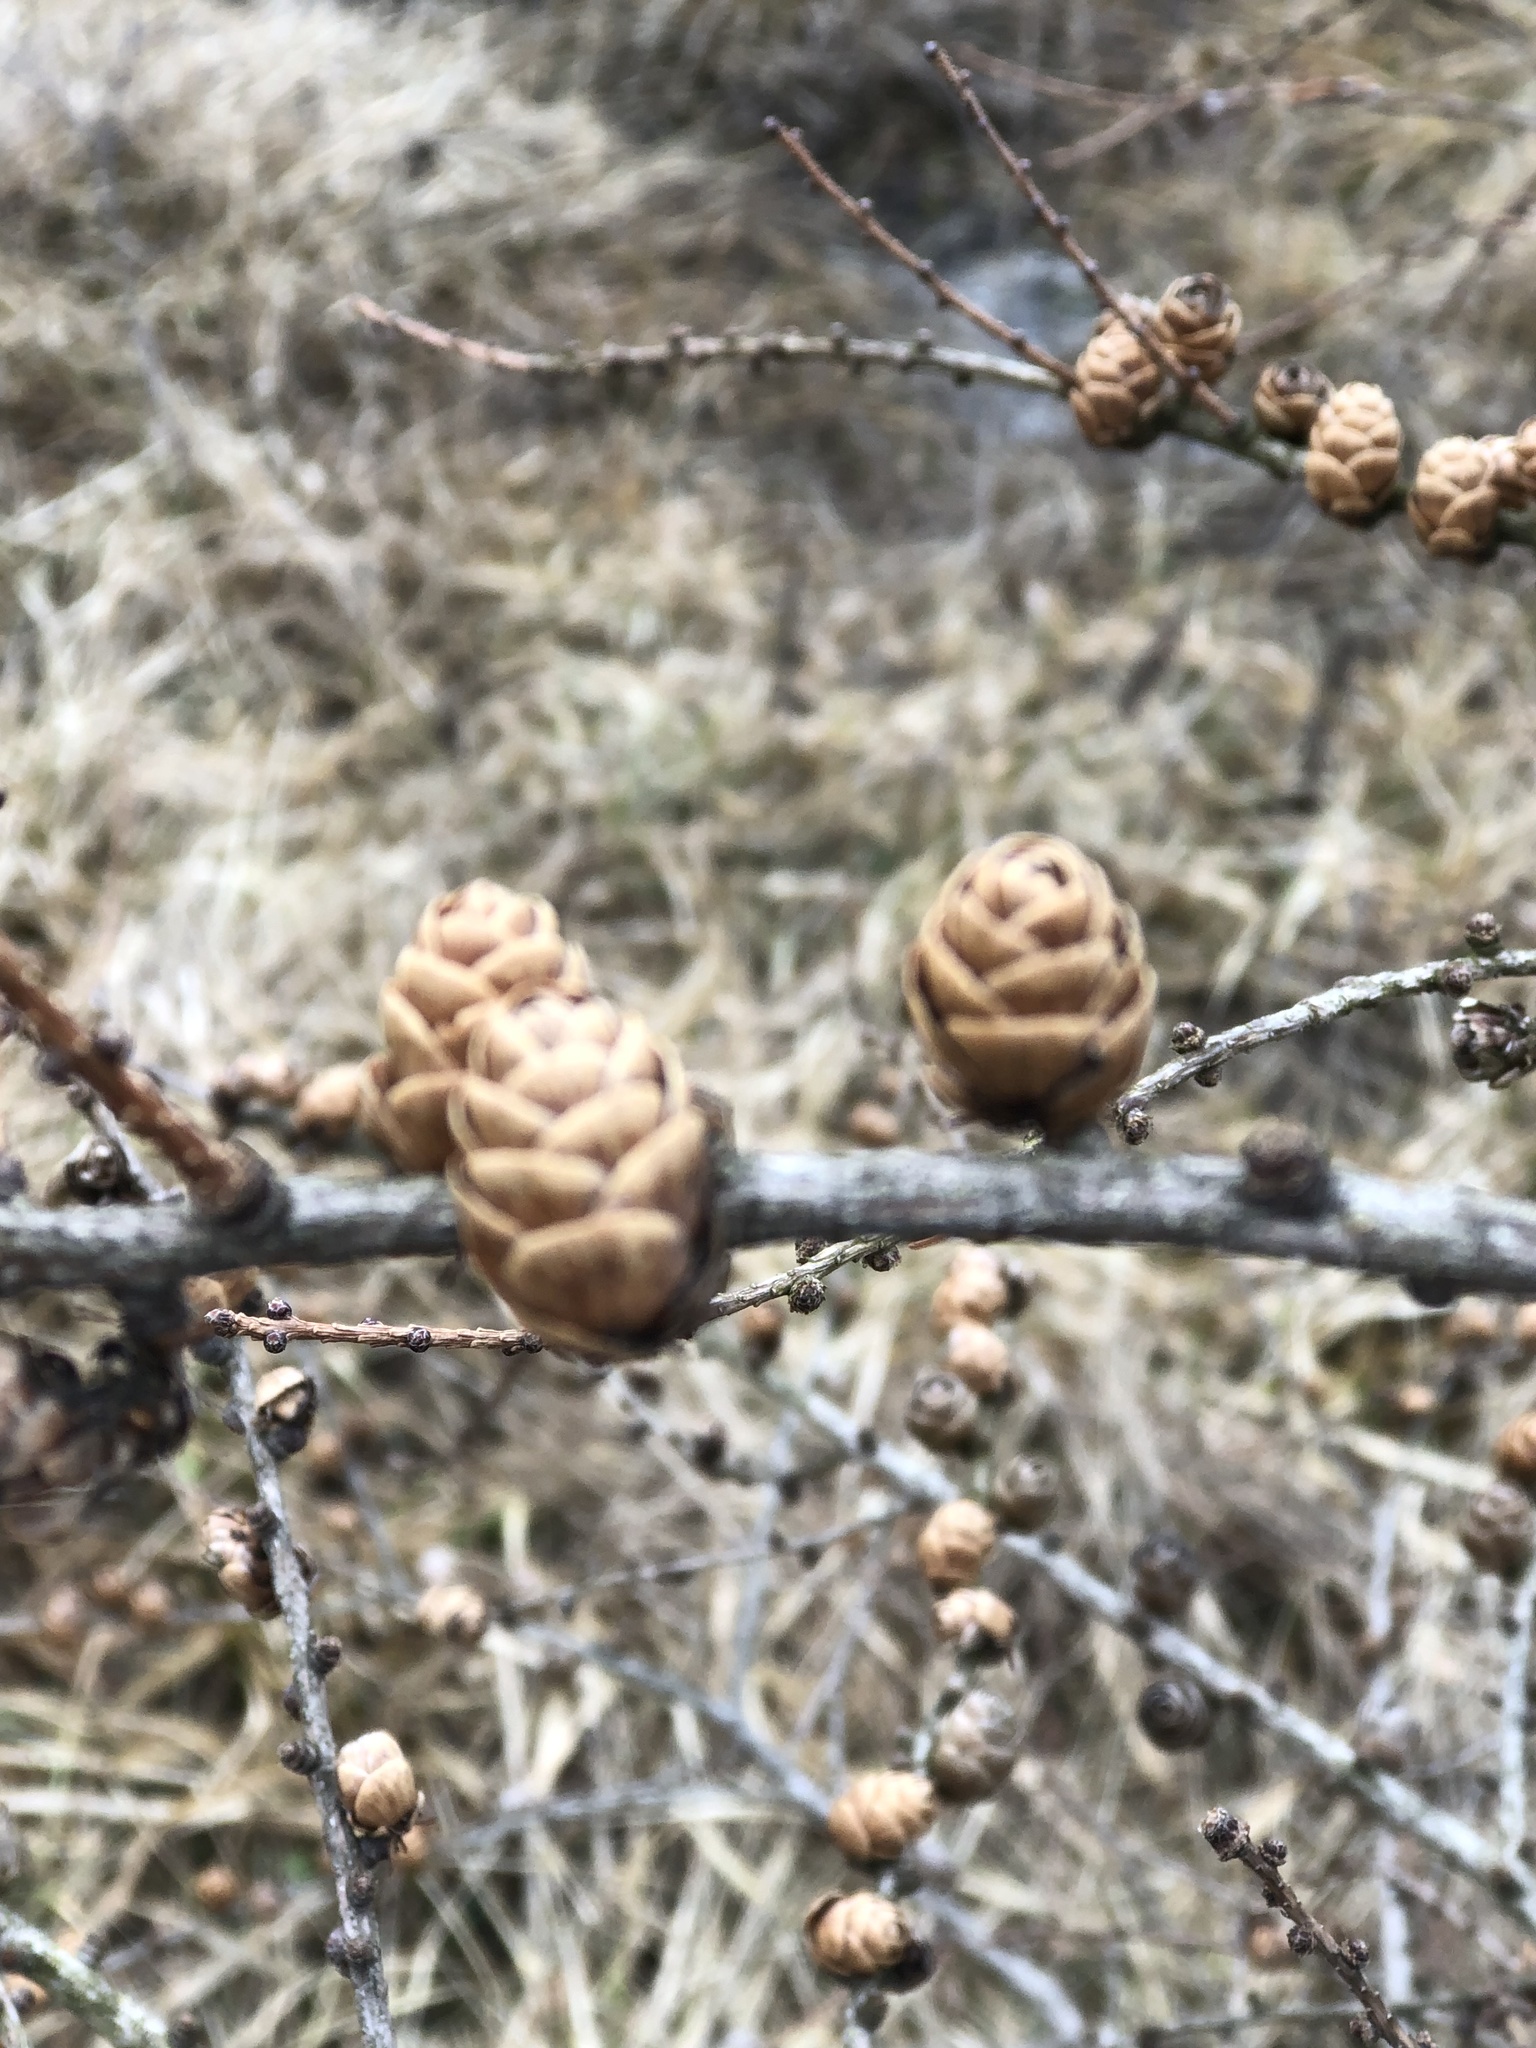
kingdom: Plantae
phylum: Tracheophyta
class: Pinopsida
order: Pinales
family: Pinaceae
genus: Larix
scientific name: Larix laricina
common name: American larch
